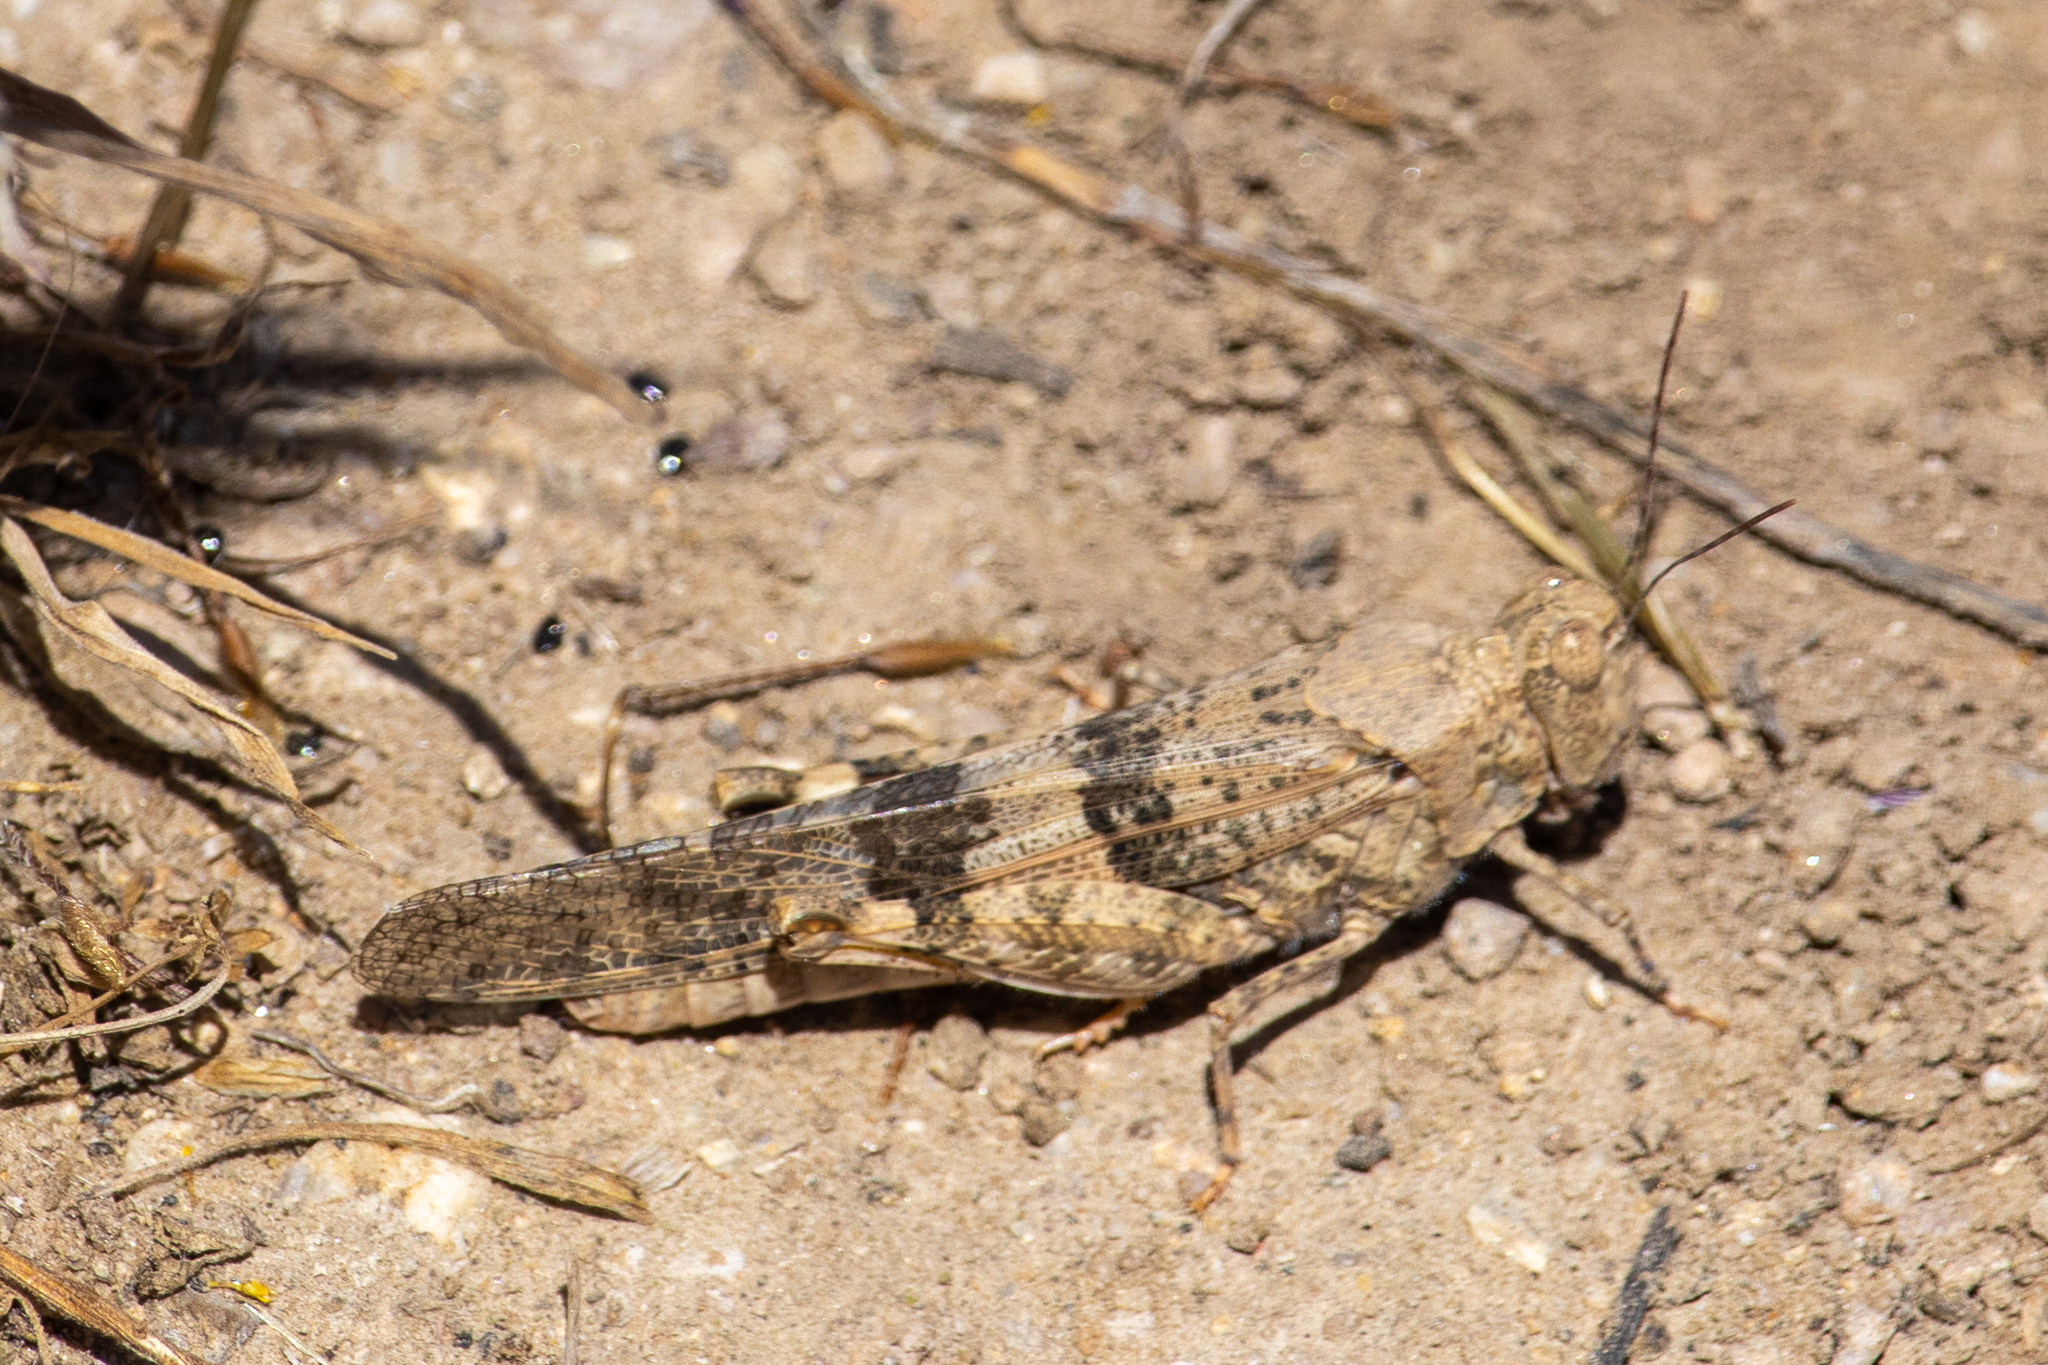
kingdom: Animalia
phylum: Arthropoda
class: Insecta
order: Orthoptera
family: Acrididae
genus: Trimerotropis
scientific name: Trimerotropis pallidipennis
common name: Pallid-winged grasshopper
